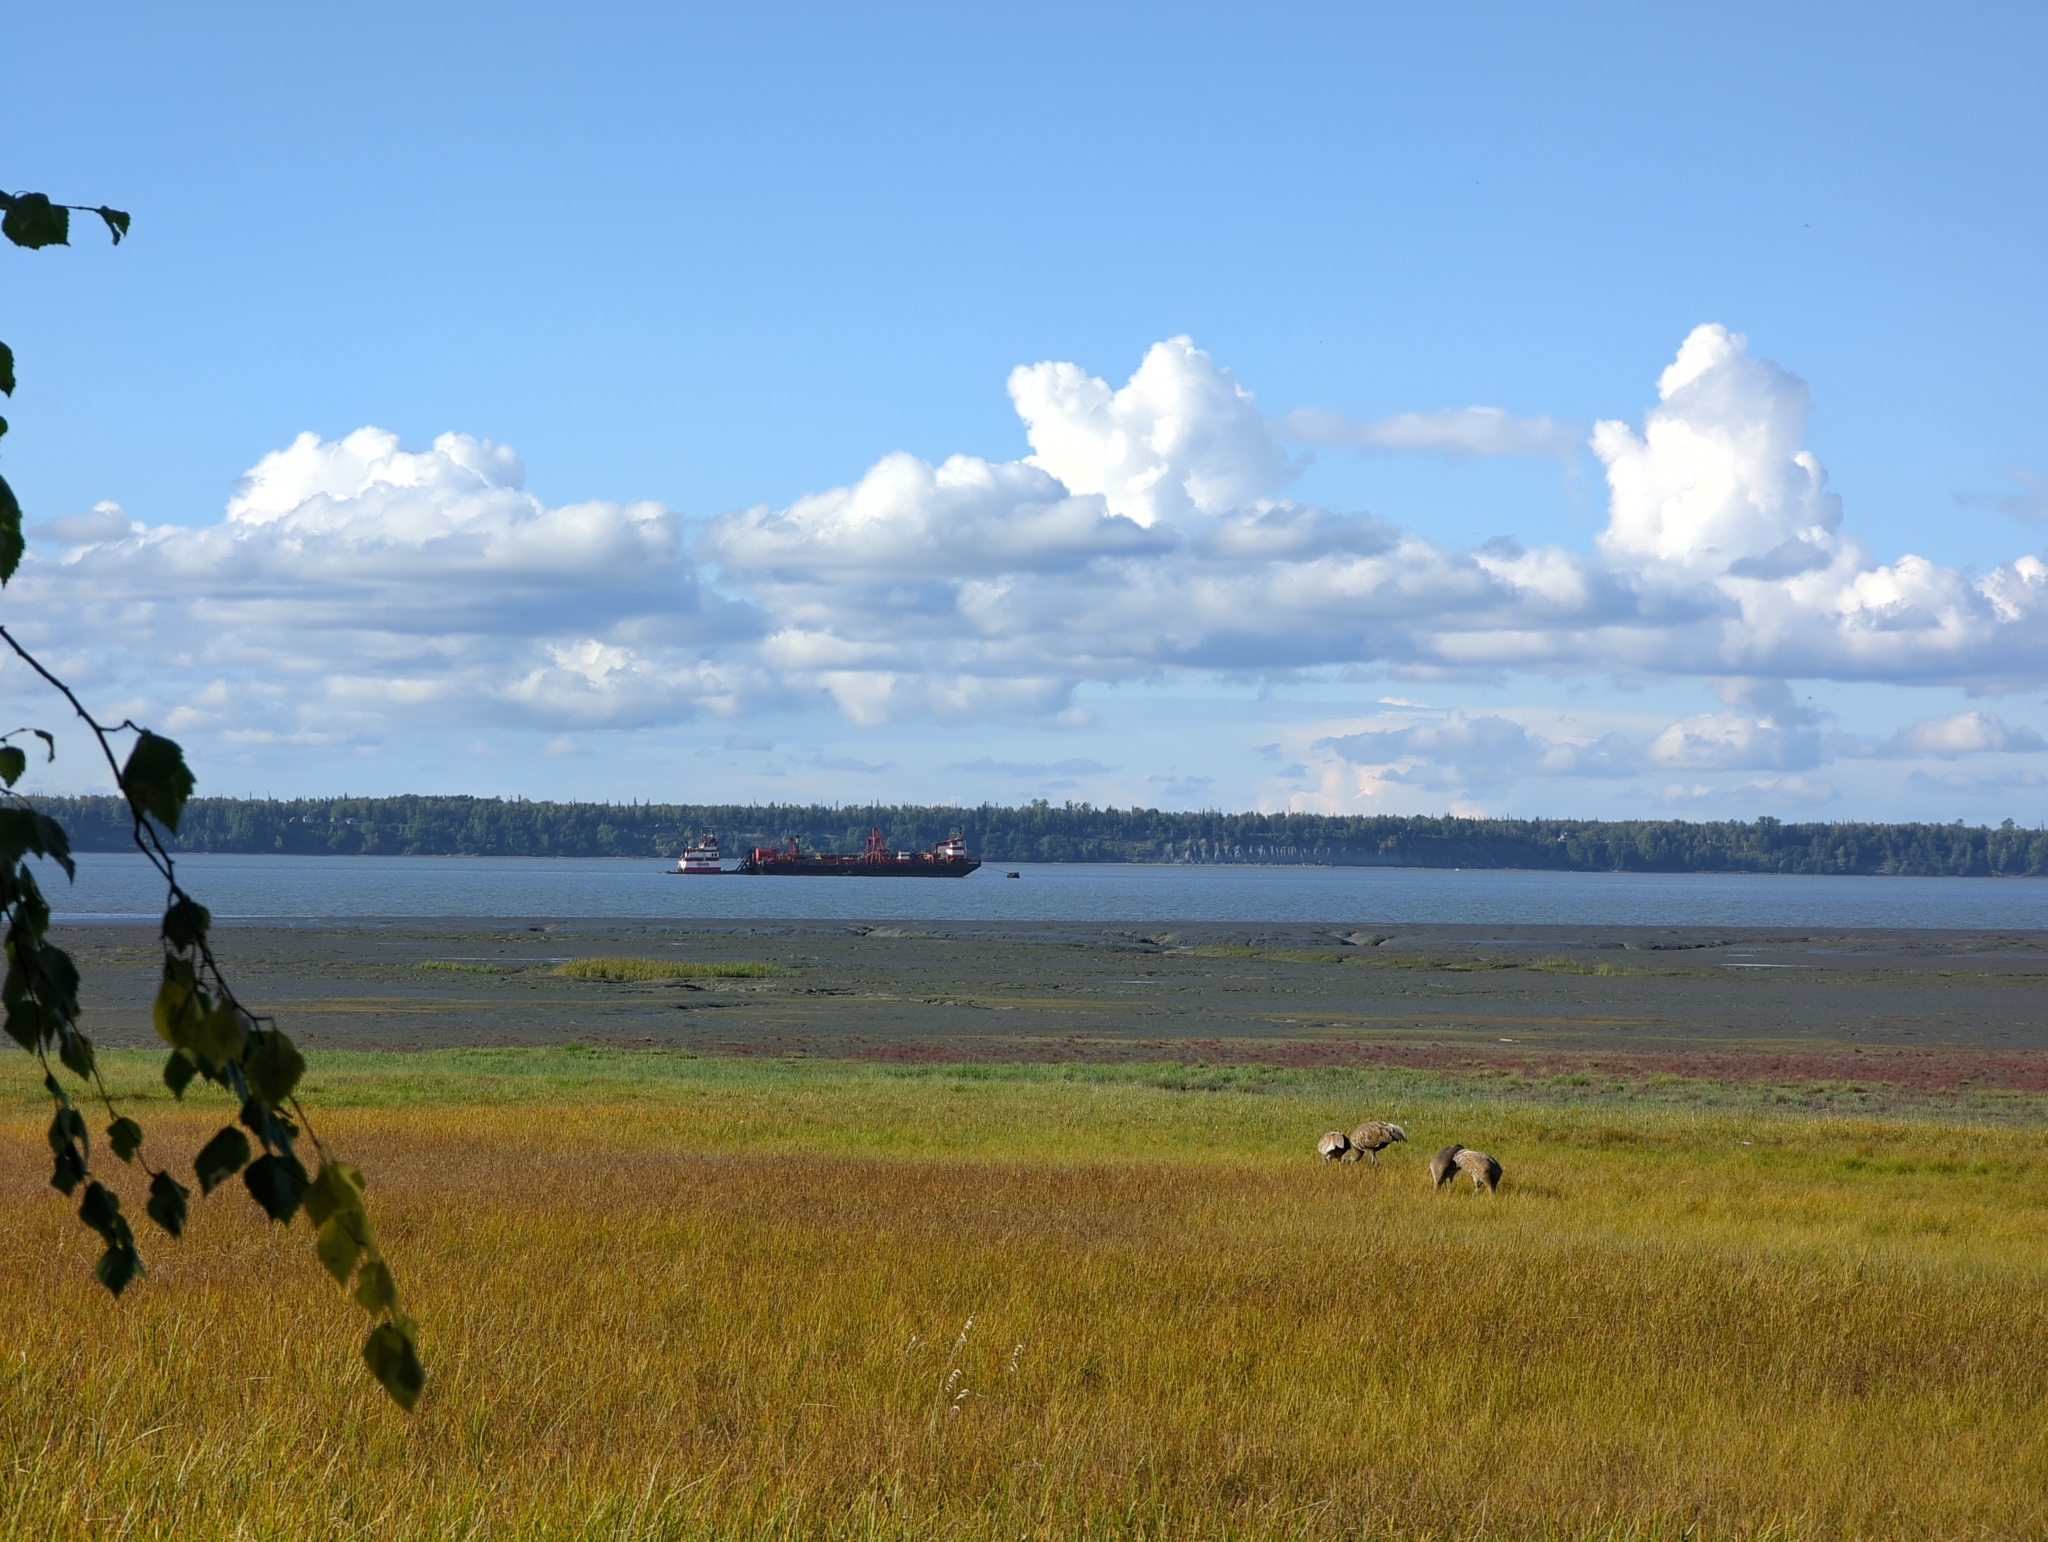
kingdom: Animalia
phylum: Chordata
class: Aves
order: Gruiformes
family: Gruidae
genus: Grus
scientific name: Grus canadensis
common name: Sandhill crane
